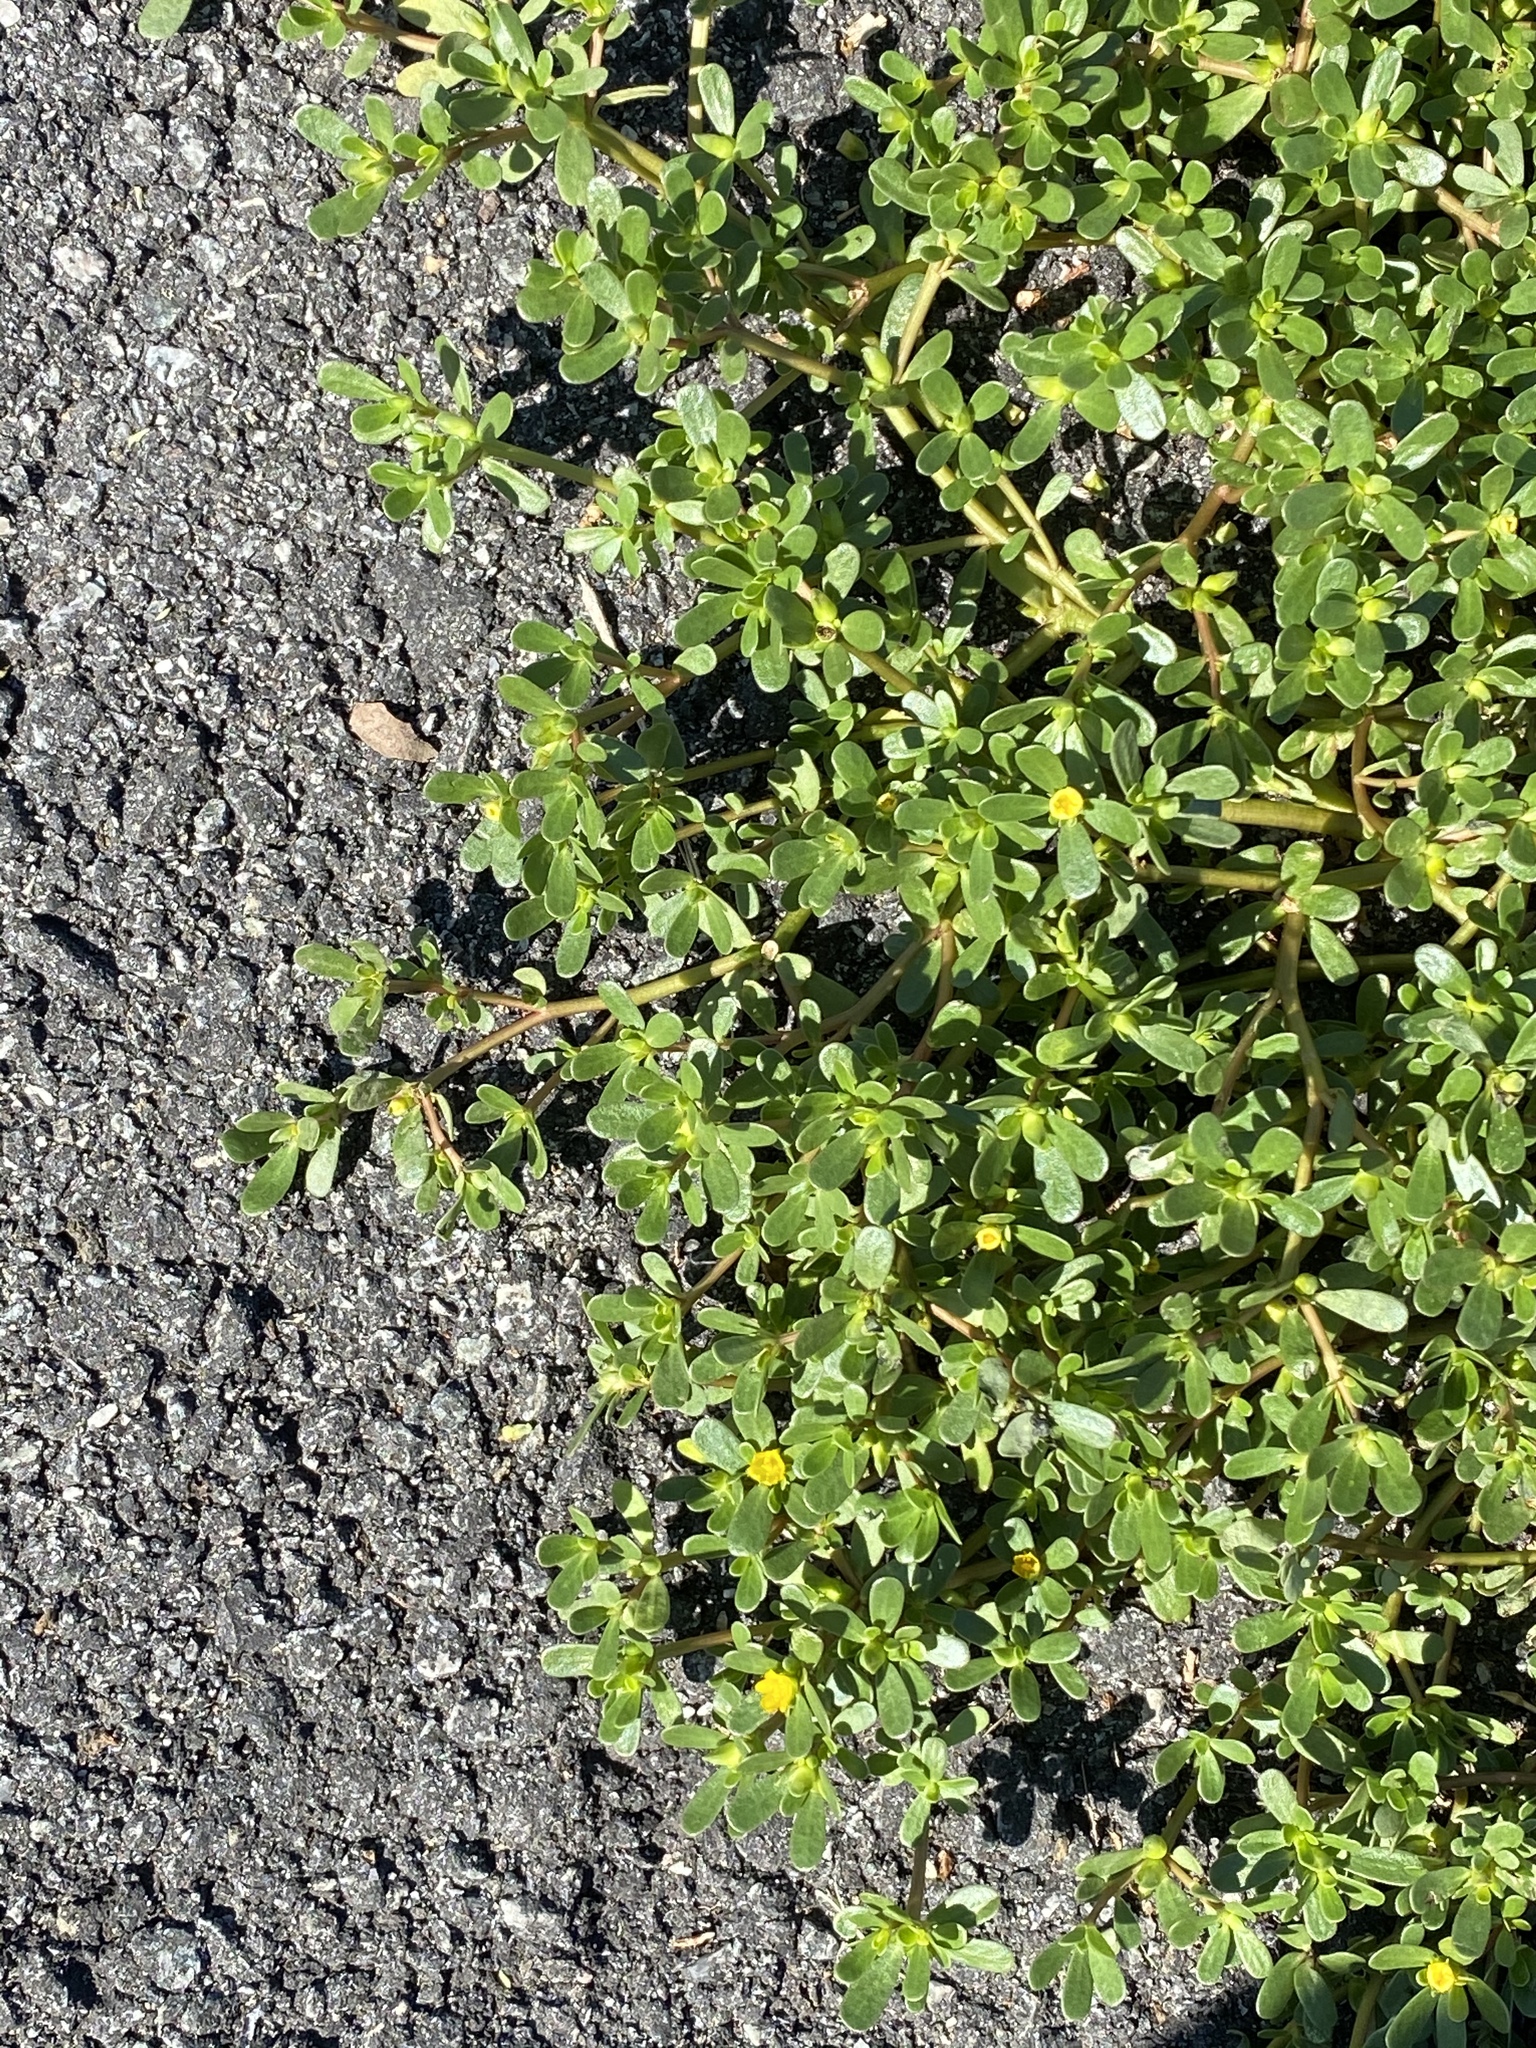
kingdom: Plantae
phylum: Tracheophyta
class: Magnoliopsida
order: Caryophyllales
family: Portulacaceae
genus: Portulaca
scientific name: Portulaca oleracea
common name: Common purslane
